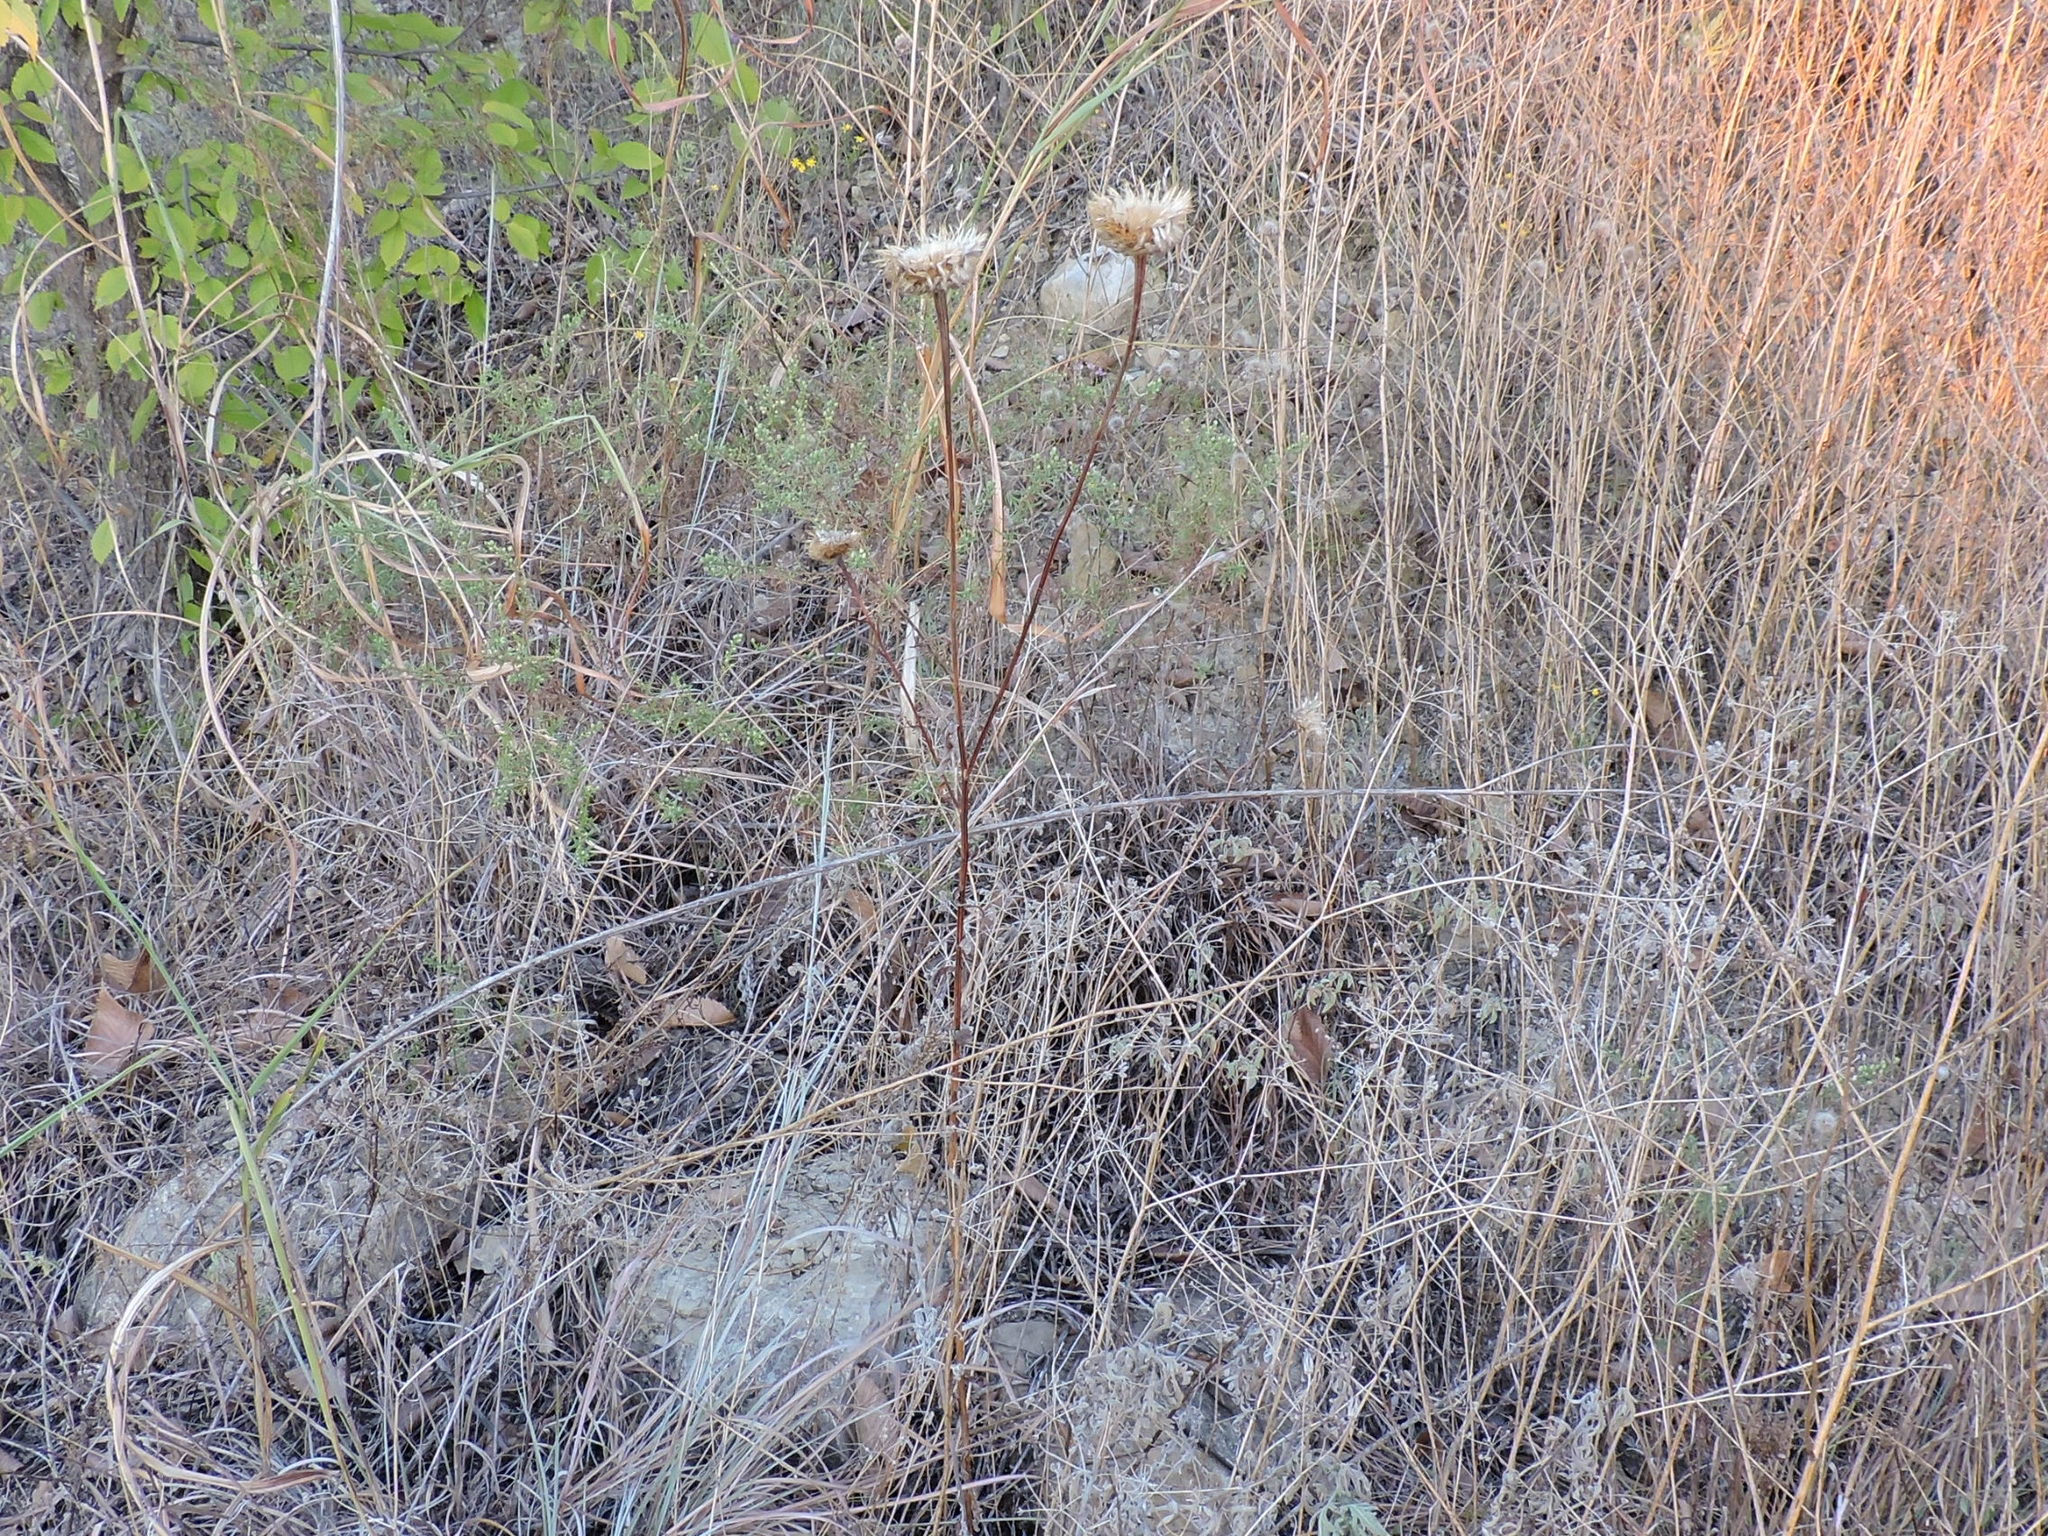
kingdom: Plantae
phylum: Tracheophyta
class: Magnoliopsida
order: Asterales
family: Asteraceae
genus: Plectocephalus
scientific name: Plectocephalus americanus
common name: American basket-flower
